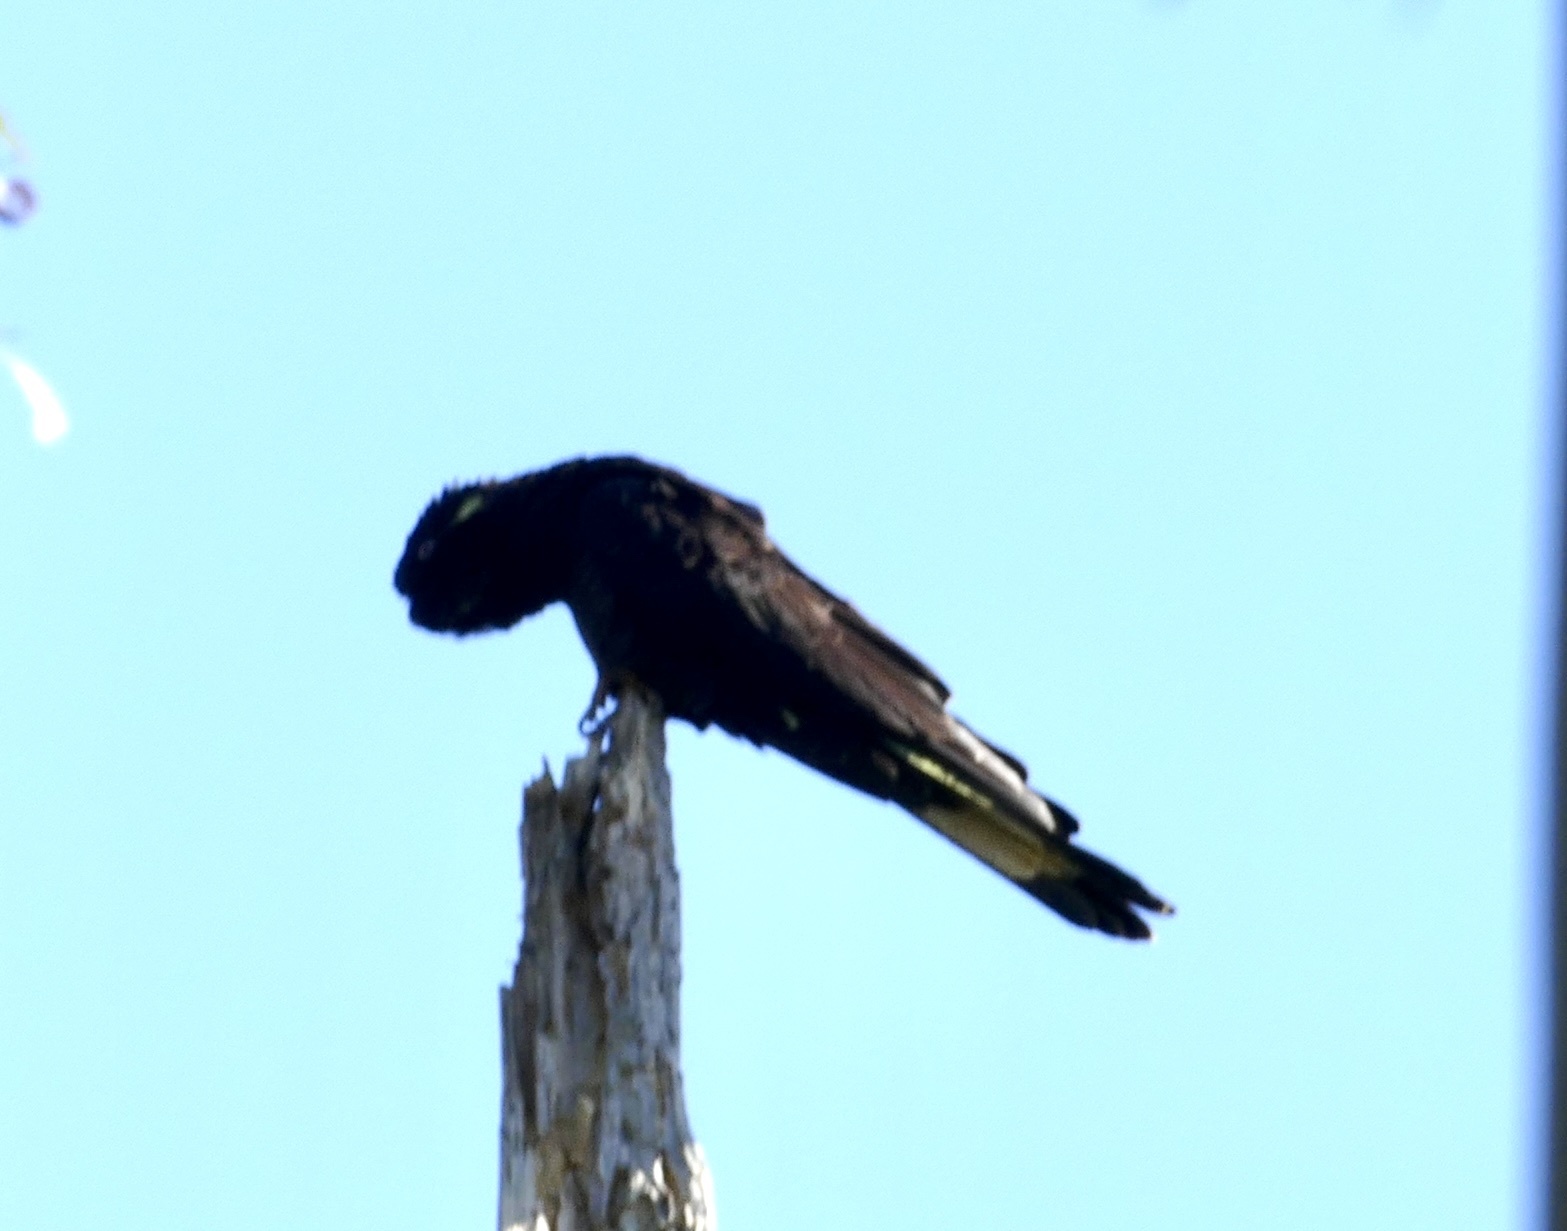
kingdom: Animalia
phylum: Chordata
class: Aves
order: Psittaciformes
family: Cacatuidae
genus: Zanda
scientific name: Zanda funerea
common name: Yellow-tailed black-cockatoo
